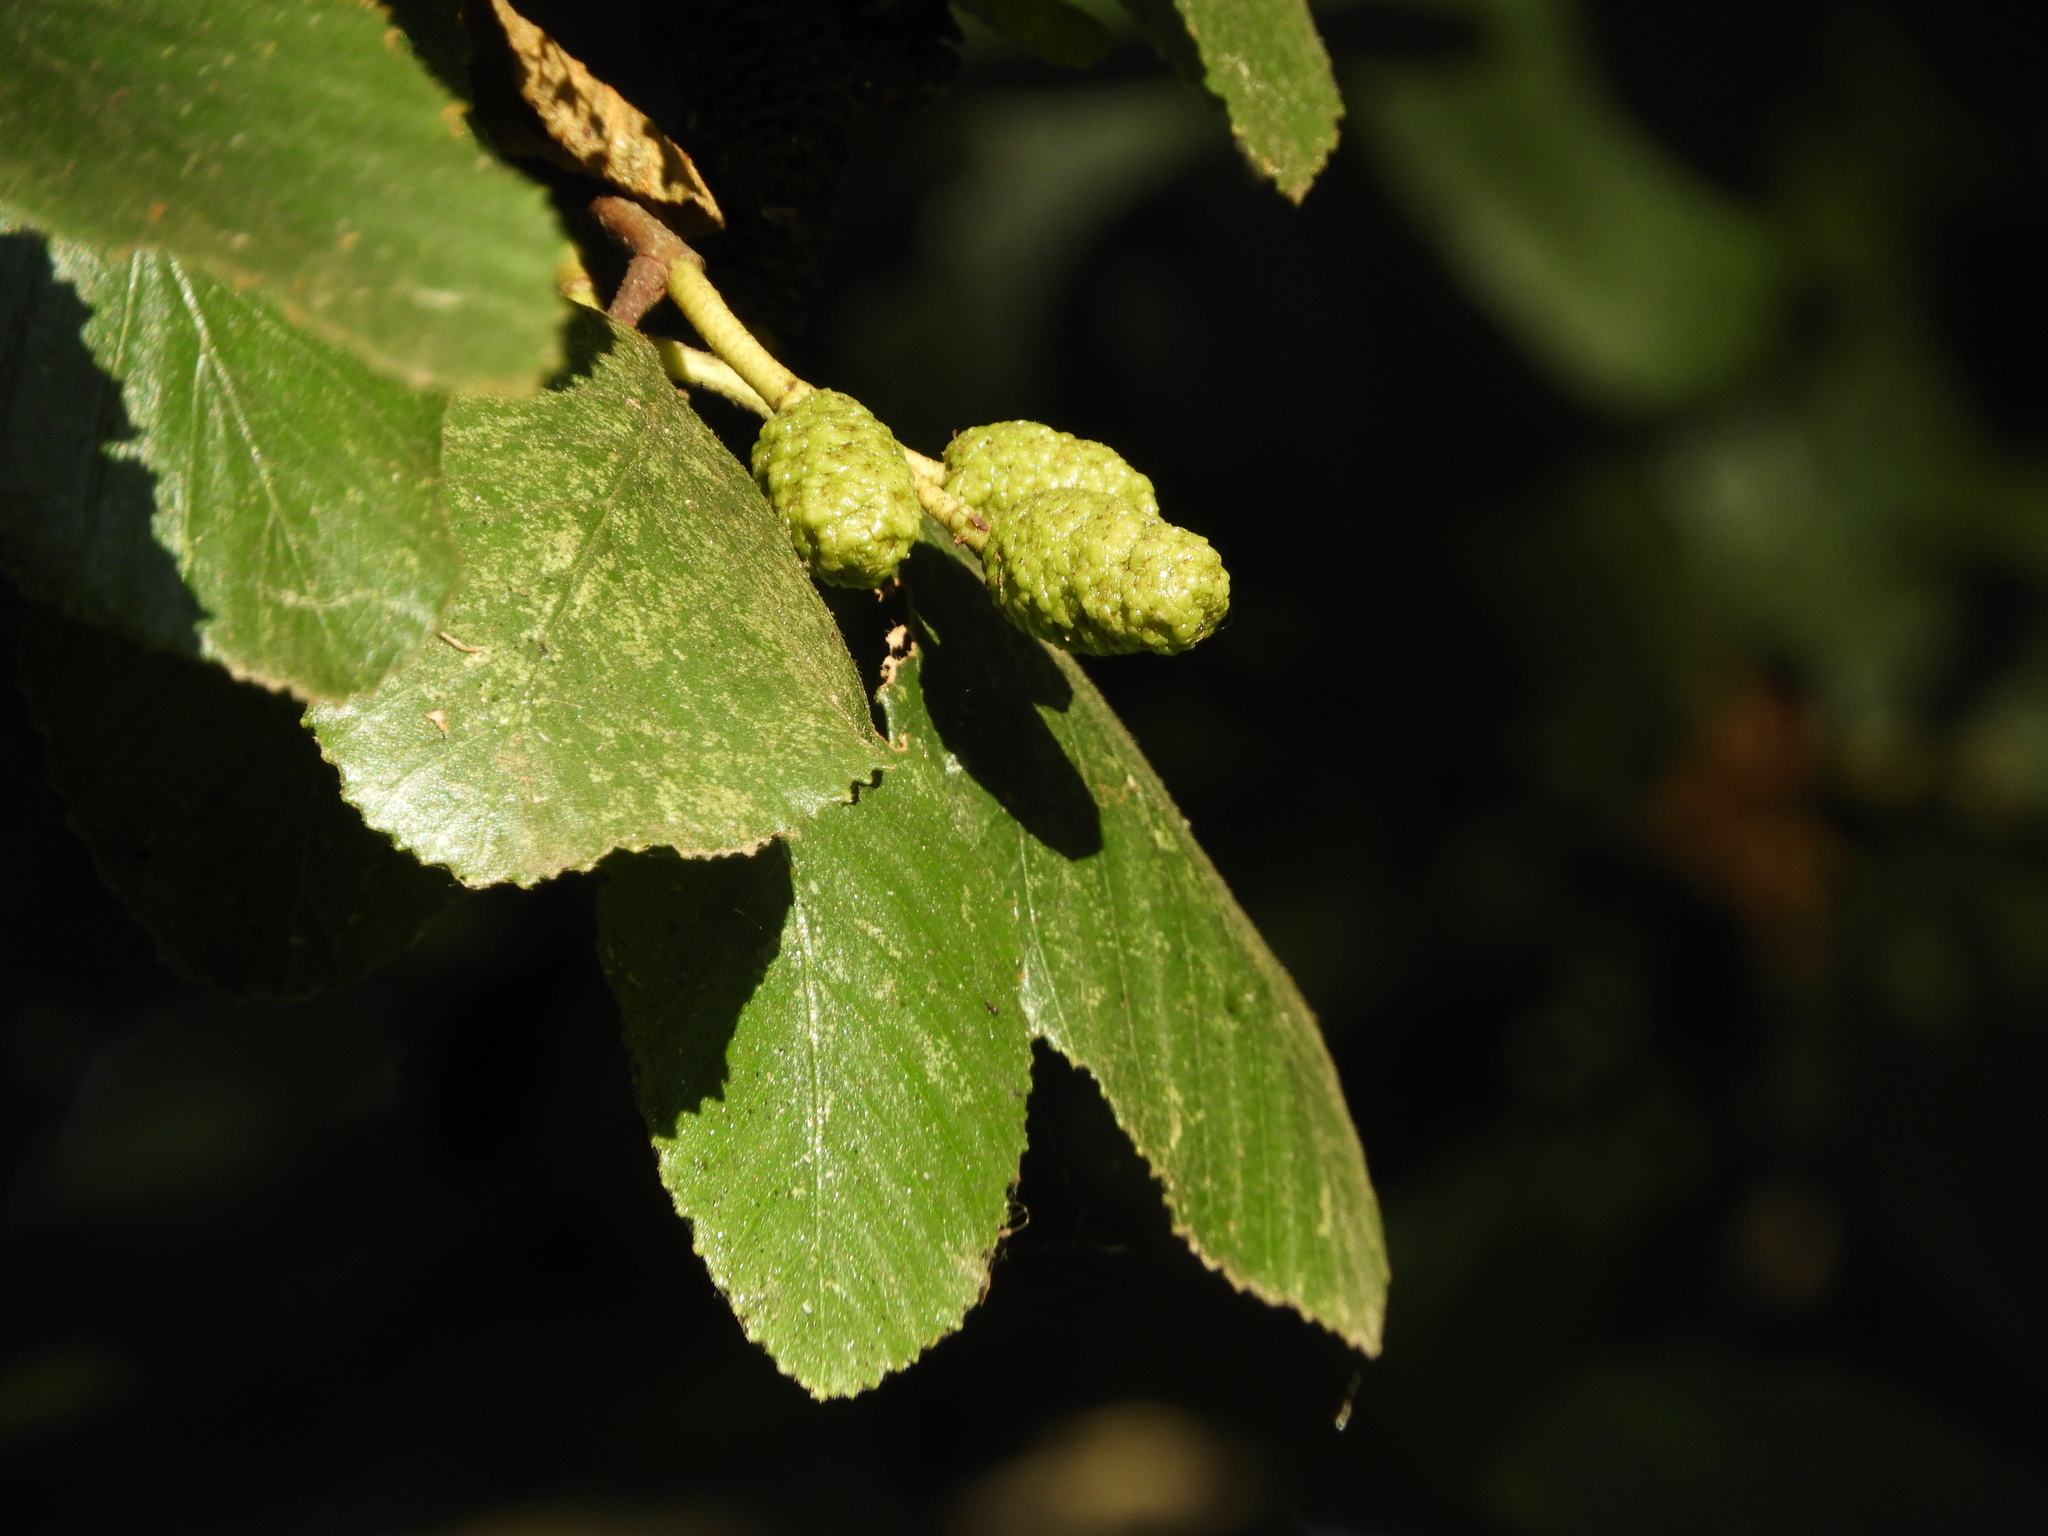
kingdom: Plantae
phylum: Tracheophyta
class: Magnoliopsida
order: Fagales
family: Betulaceae
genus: Alnus
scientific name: Alnus rhombifolia
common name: California alder
